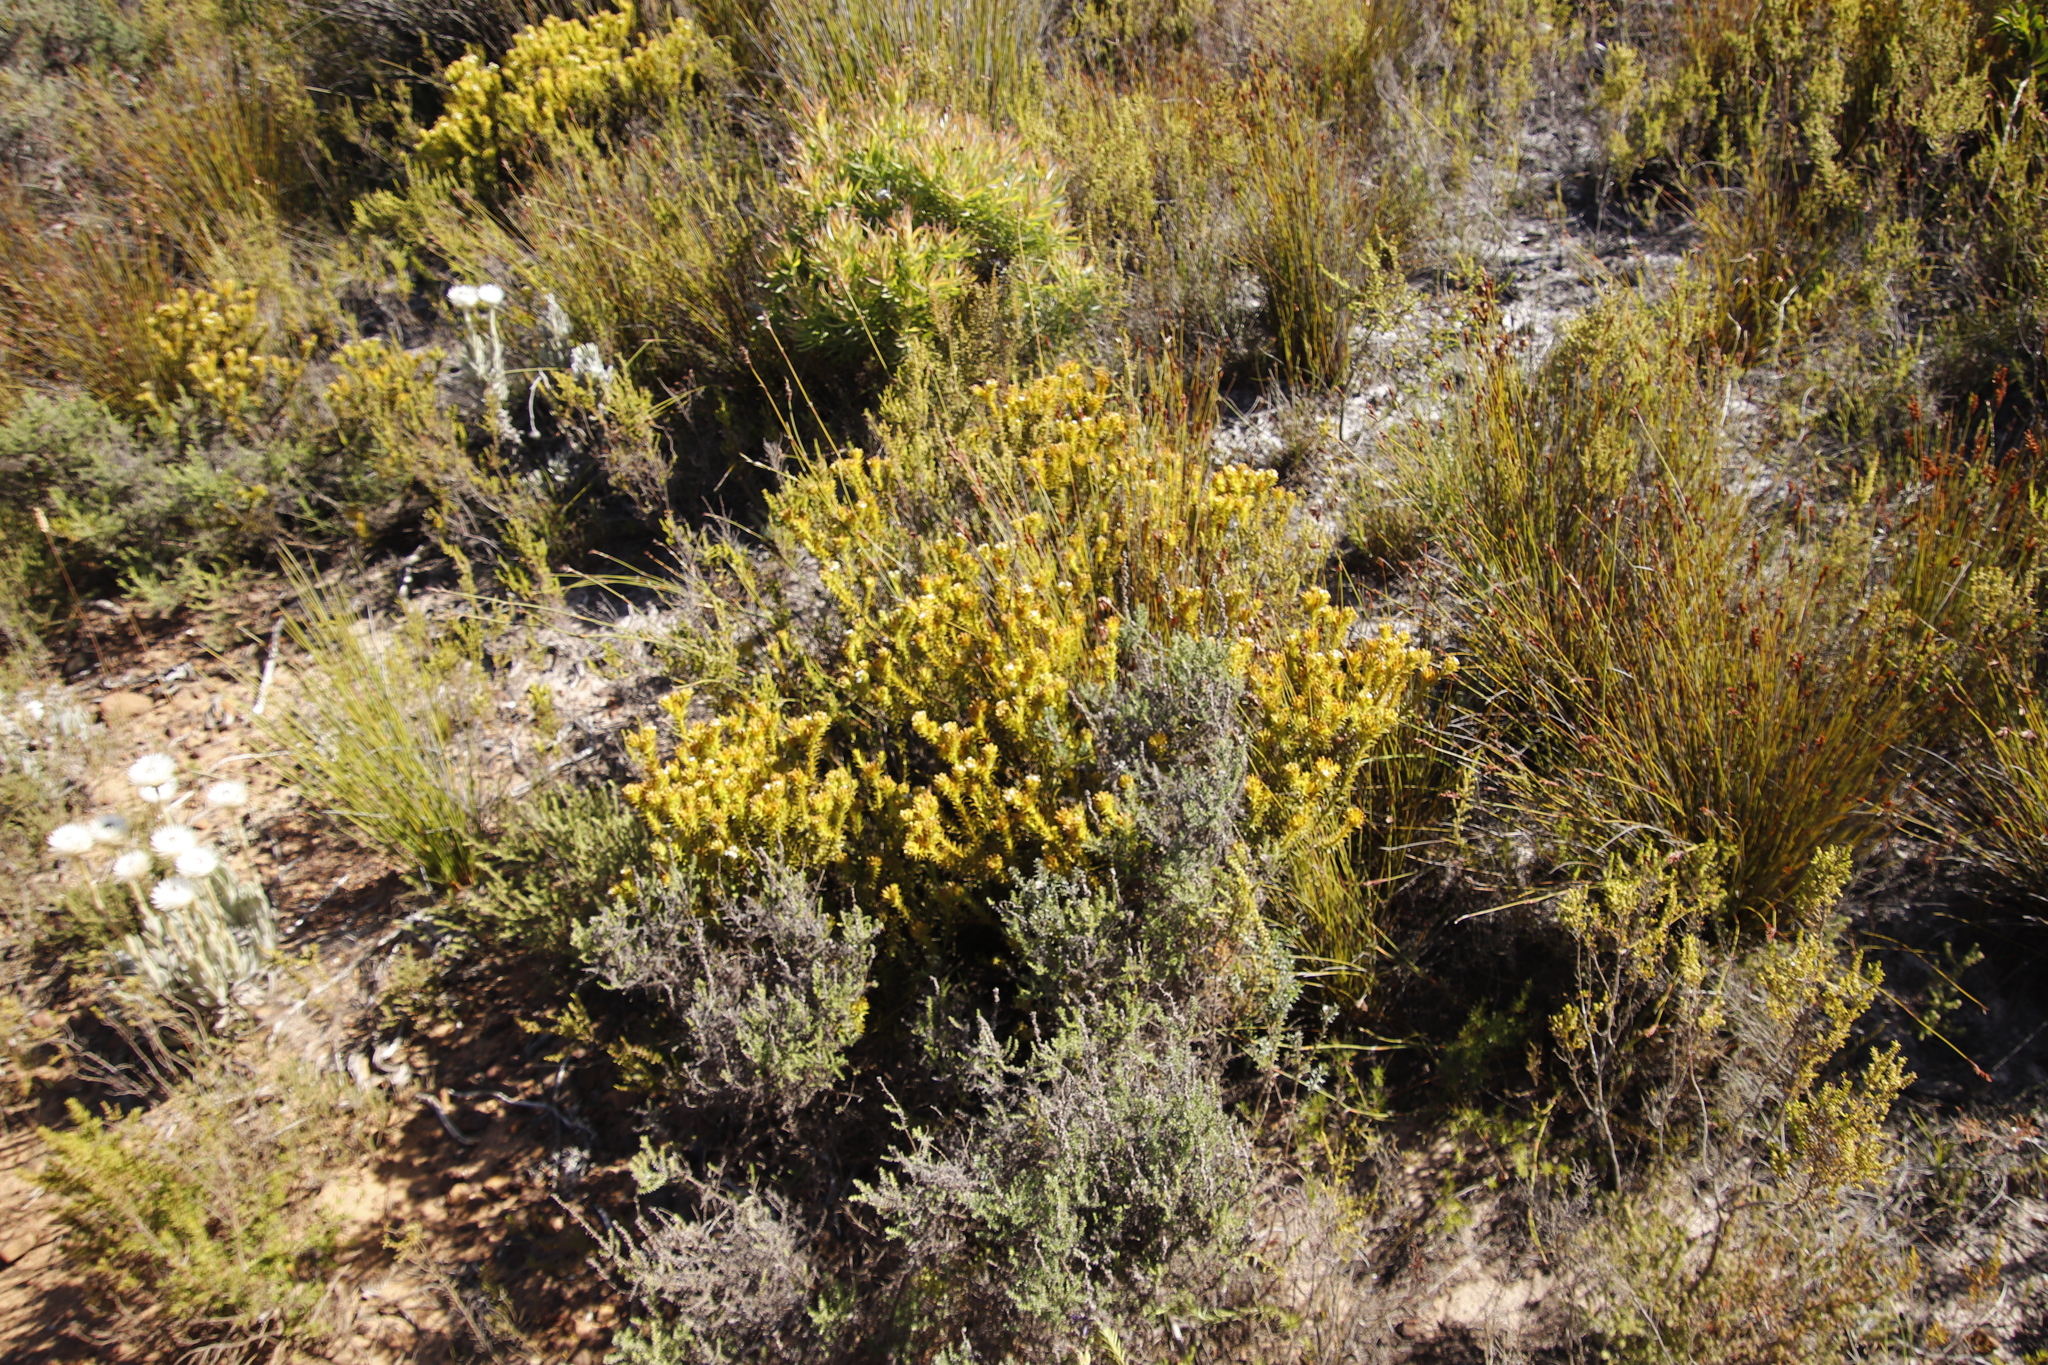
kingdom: Plantae
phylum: Tracheophyta
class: Magnoliopsida
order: Santalales
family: Thesiaceae
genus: Thesium
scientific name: Thesium viridifolium
